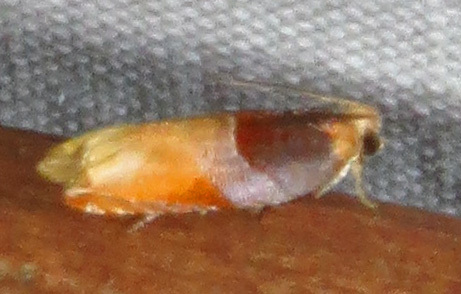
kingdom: Animalia
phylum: Arthropoda
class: Insecta
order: Lepidoptera
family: Tortricidae
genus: Ancylis
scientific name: Ancylis divisana
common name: Two-toned ancylis moth
